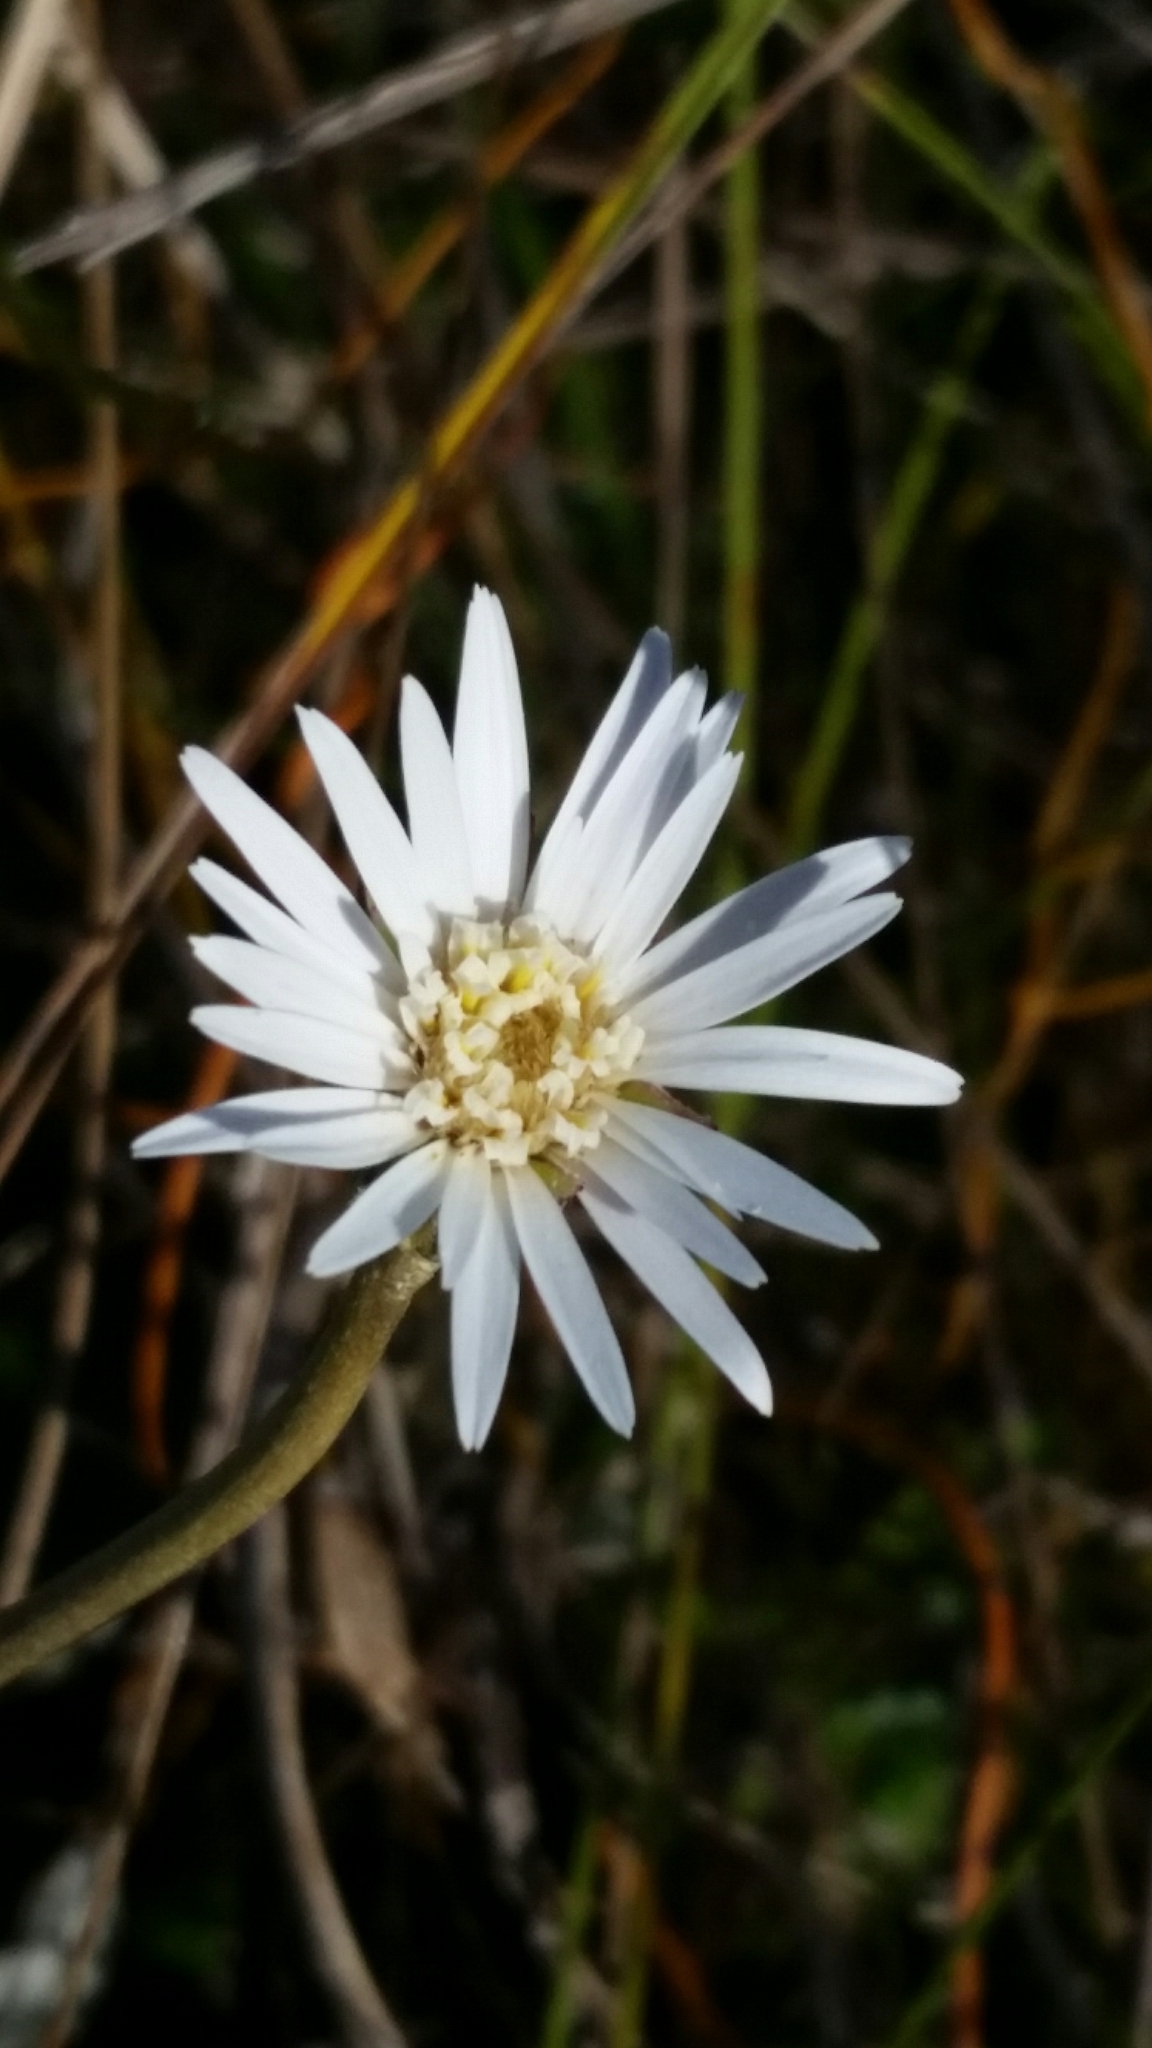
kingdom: Plantae
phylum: Tracheophyta
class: Magnoliopsida
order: Asterales
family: Asteraceae
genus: Chaptalia
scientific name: Chaptalia tomentosa
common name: Woolly sunbonnet
